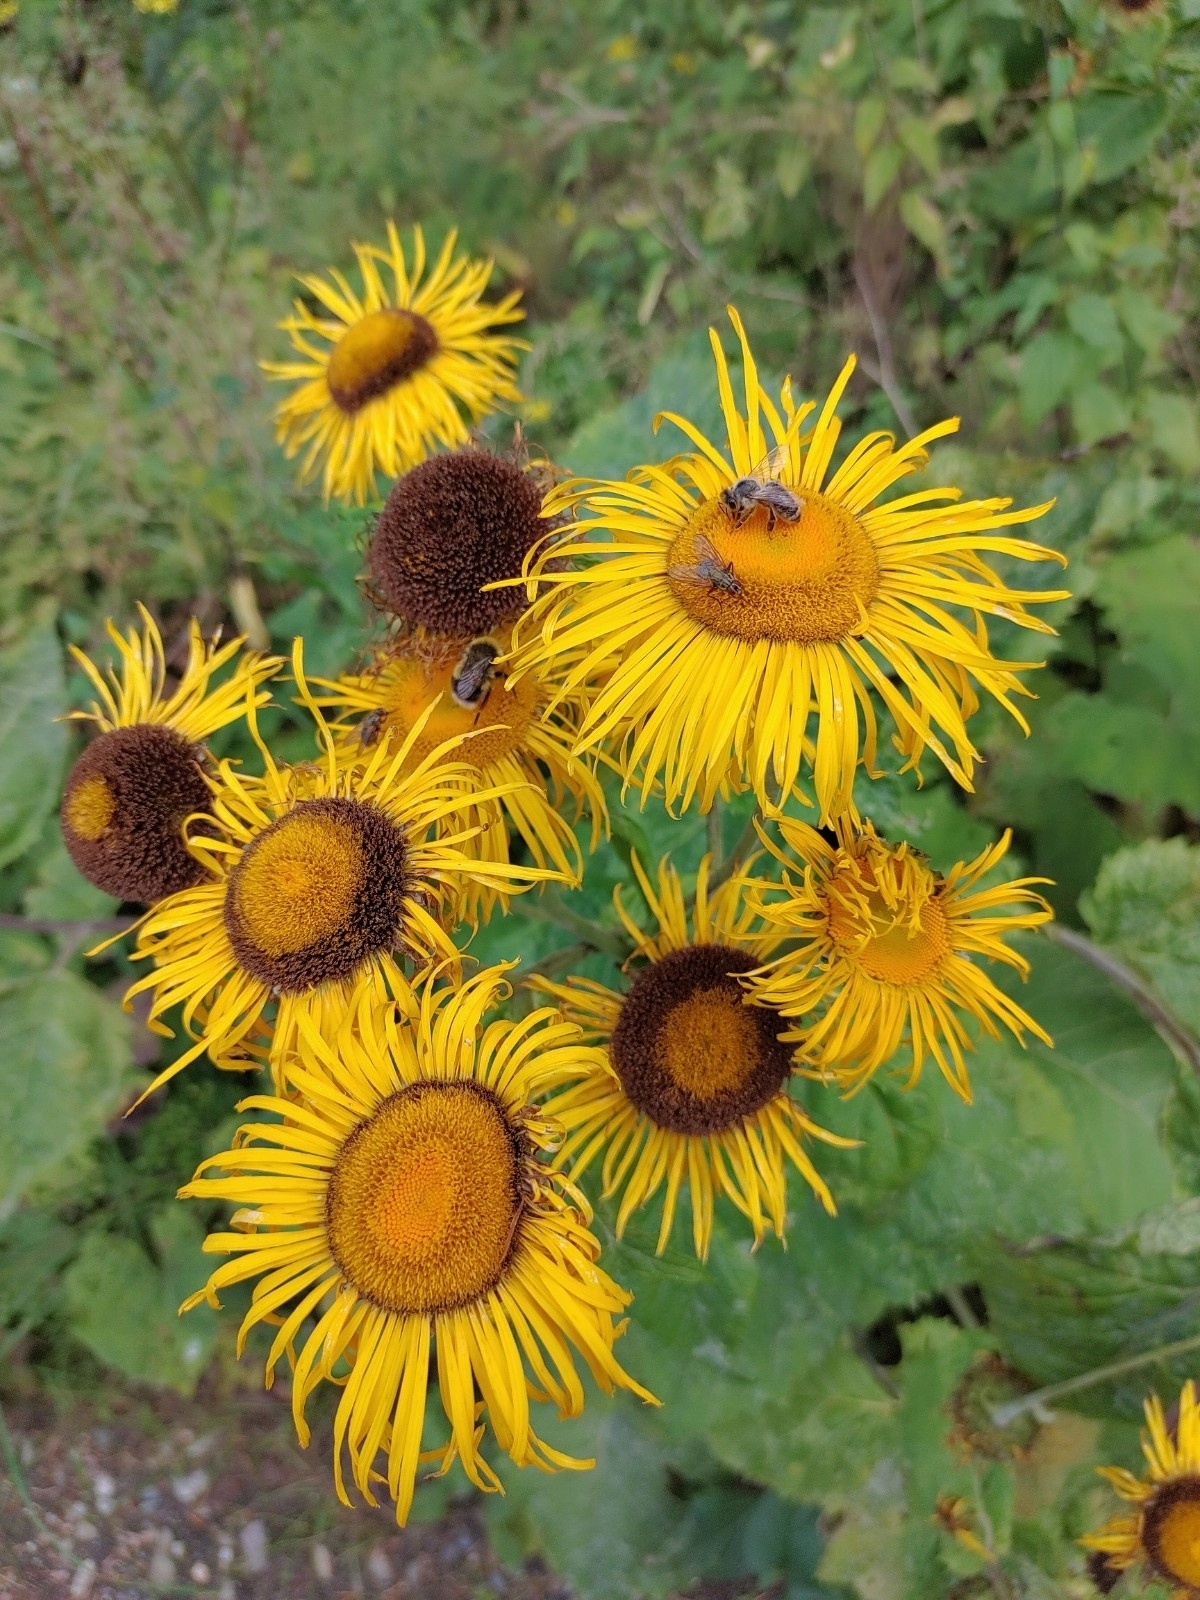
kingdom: Plantae
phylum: Tracheophyta
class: Magnoliopsida
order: Asterales
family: Asteraceae
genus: Telekia
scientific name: Telekia speciosa
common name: Yellow oxeye
